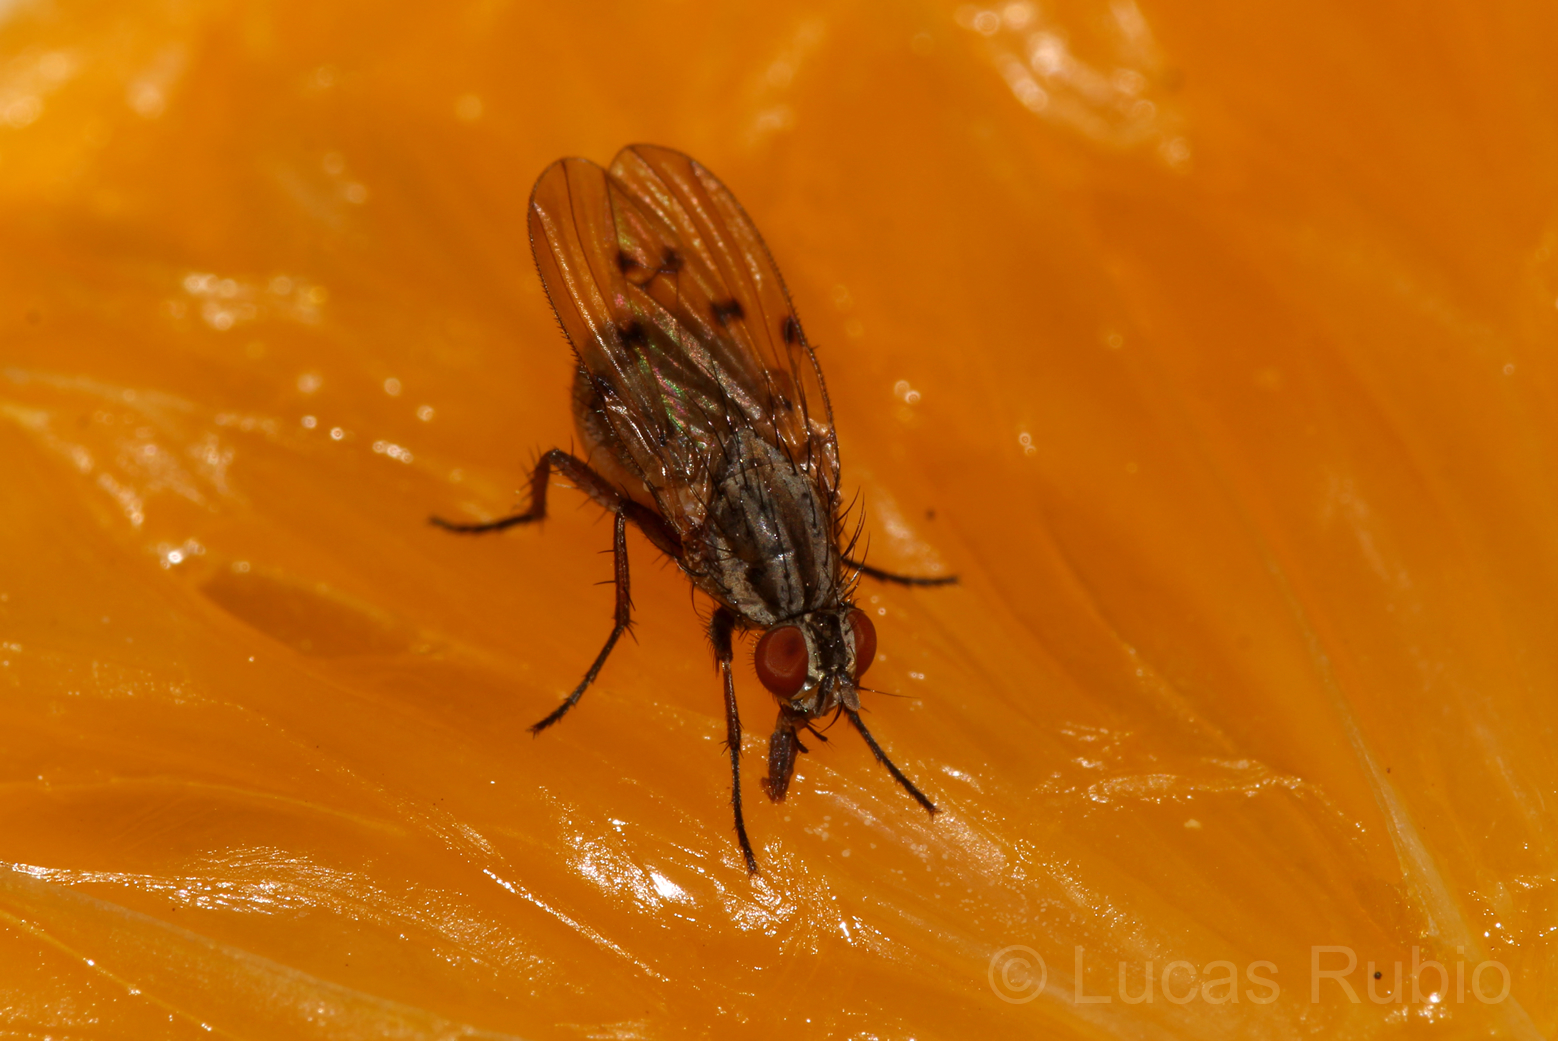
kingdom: Animalia
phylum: Arthropoda
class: Insecta
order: Diptera
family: Anthomyiidae
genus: Anthomyia
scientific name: Anthomyia punctipennis
